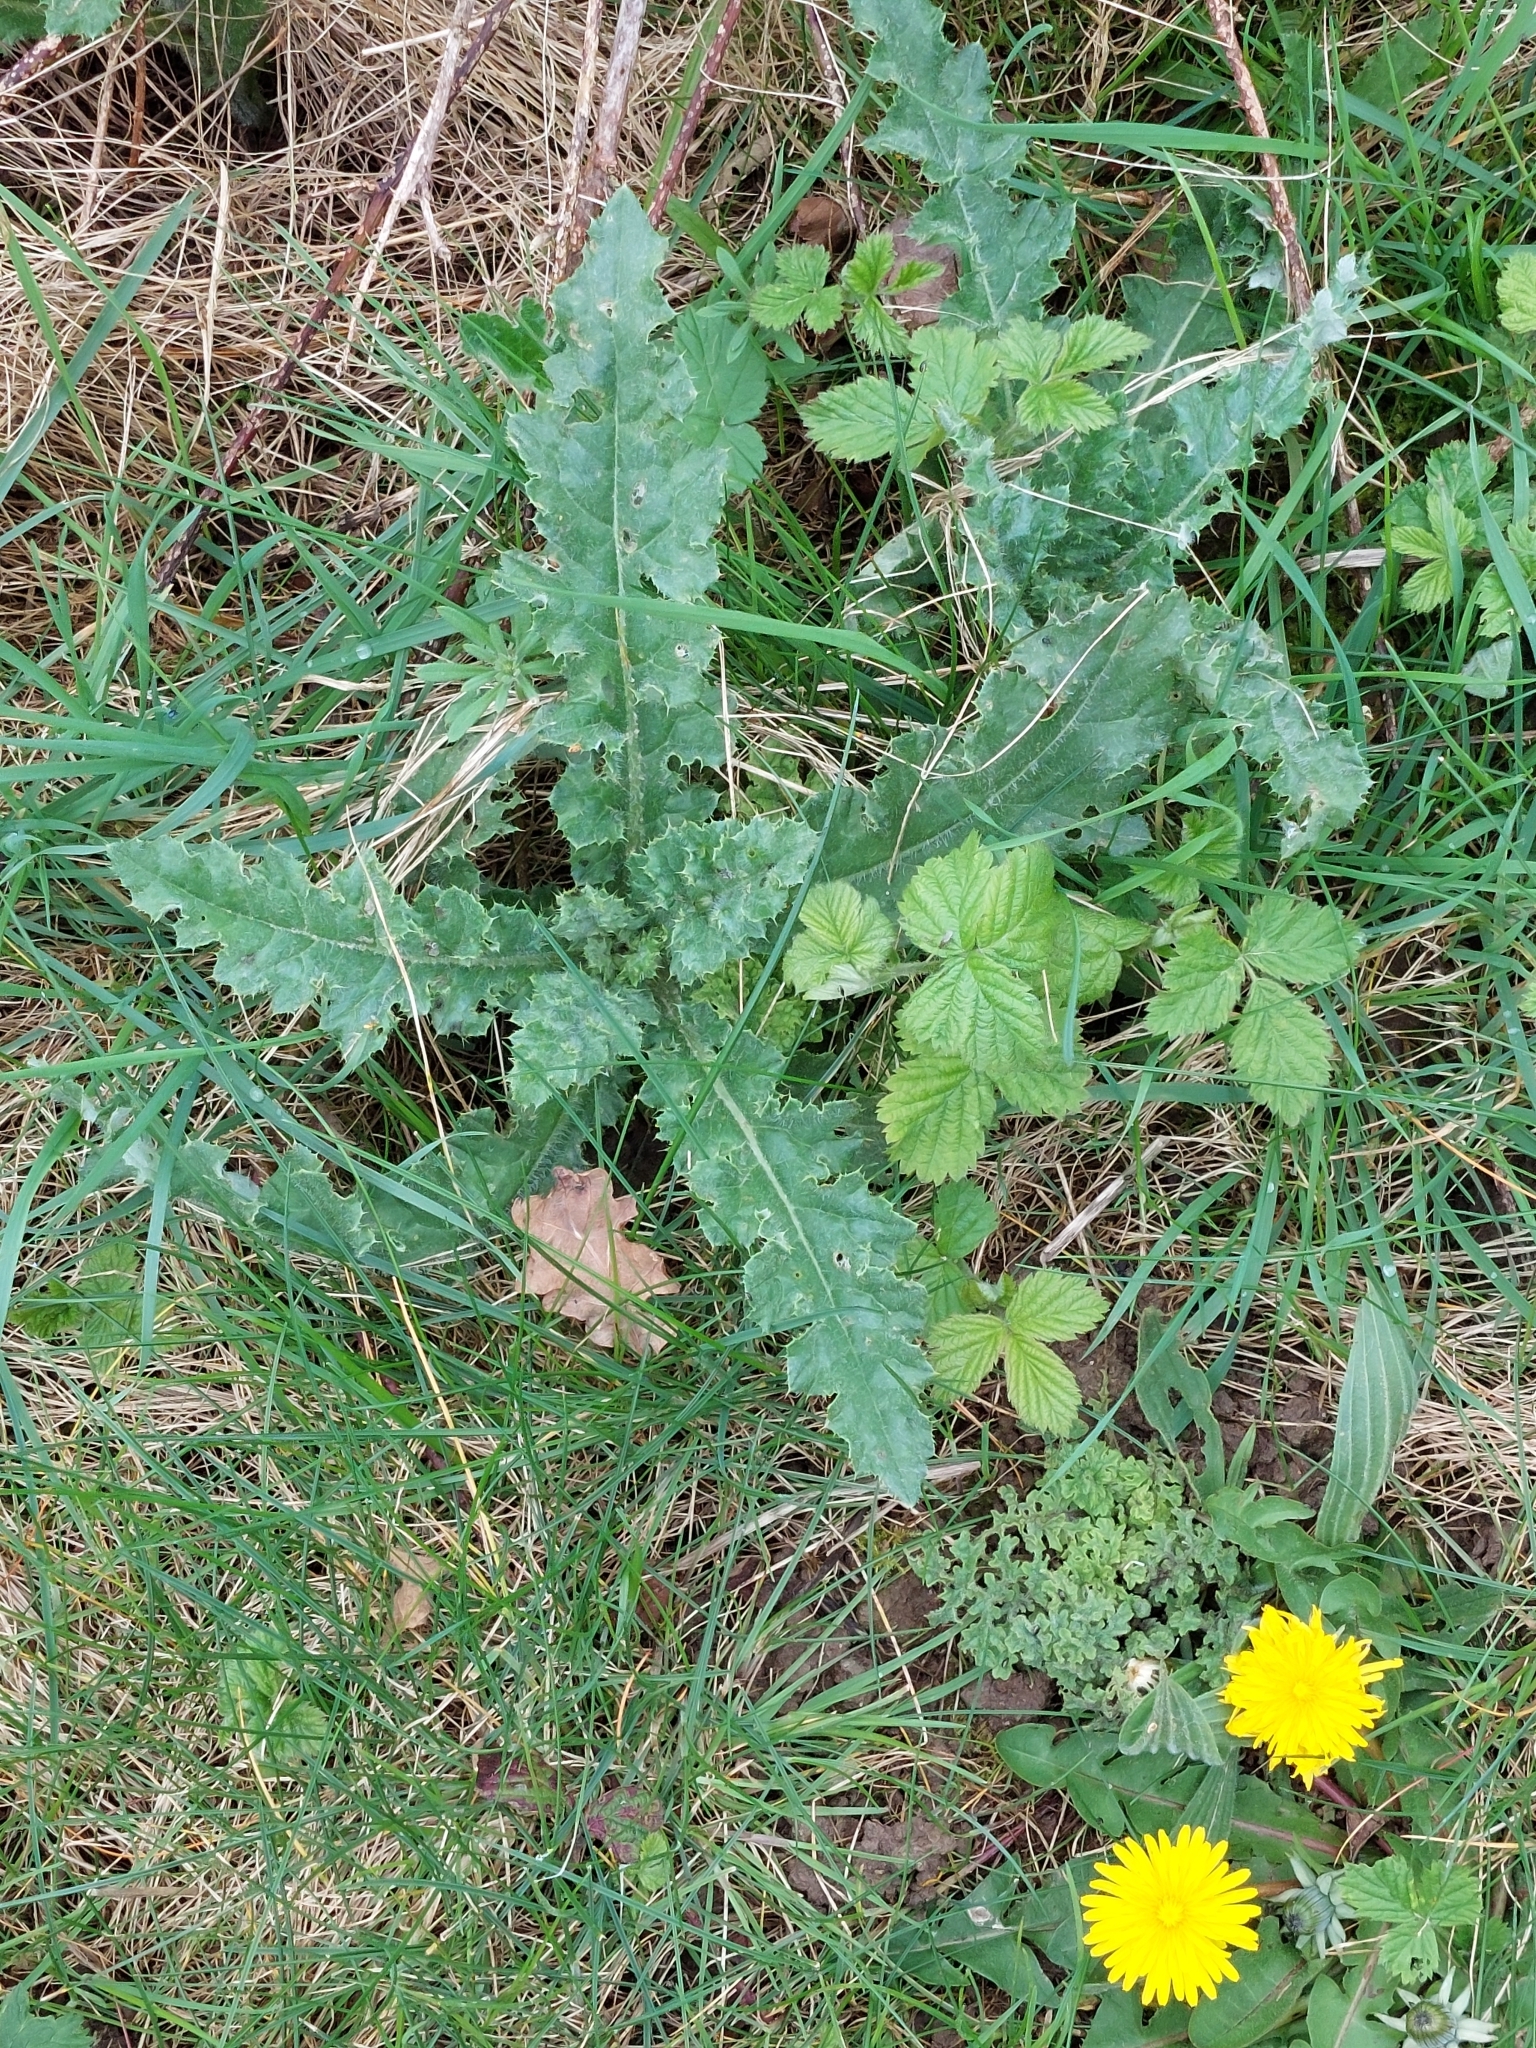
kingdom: Plantae
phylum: Tracheophyta
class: Magnoliopsida
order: Asterales
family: Asteraceae
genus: Cirsium
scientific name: Cirsium arvense
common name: Creeping thistle
